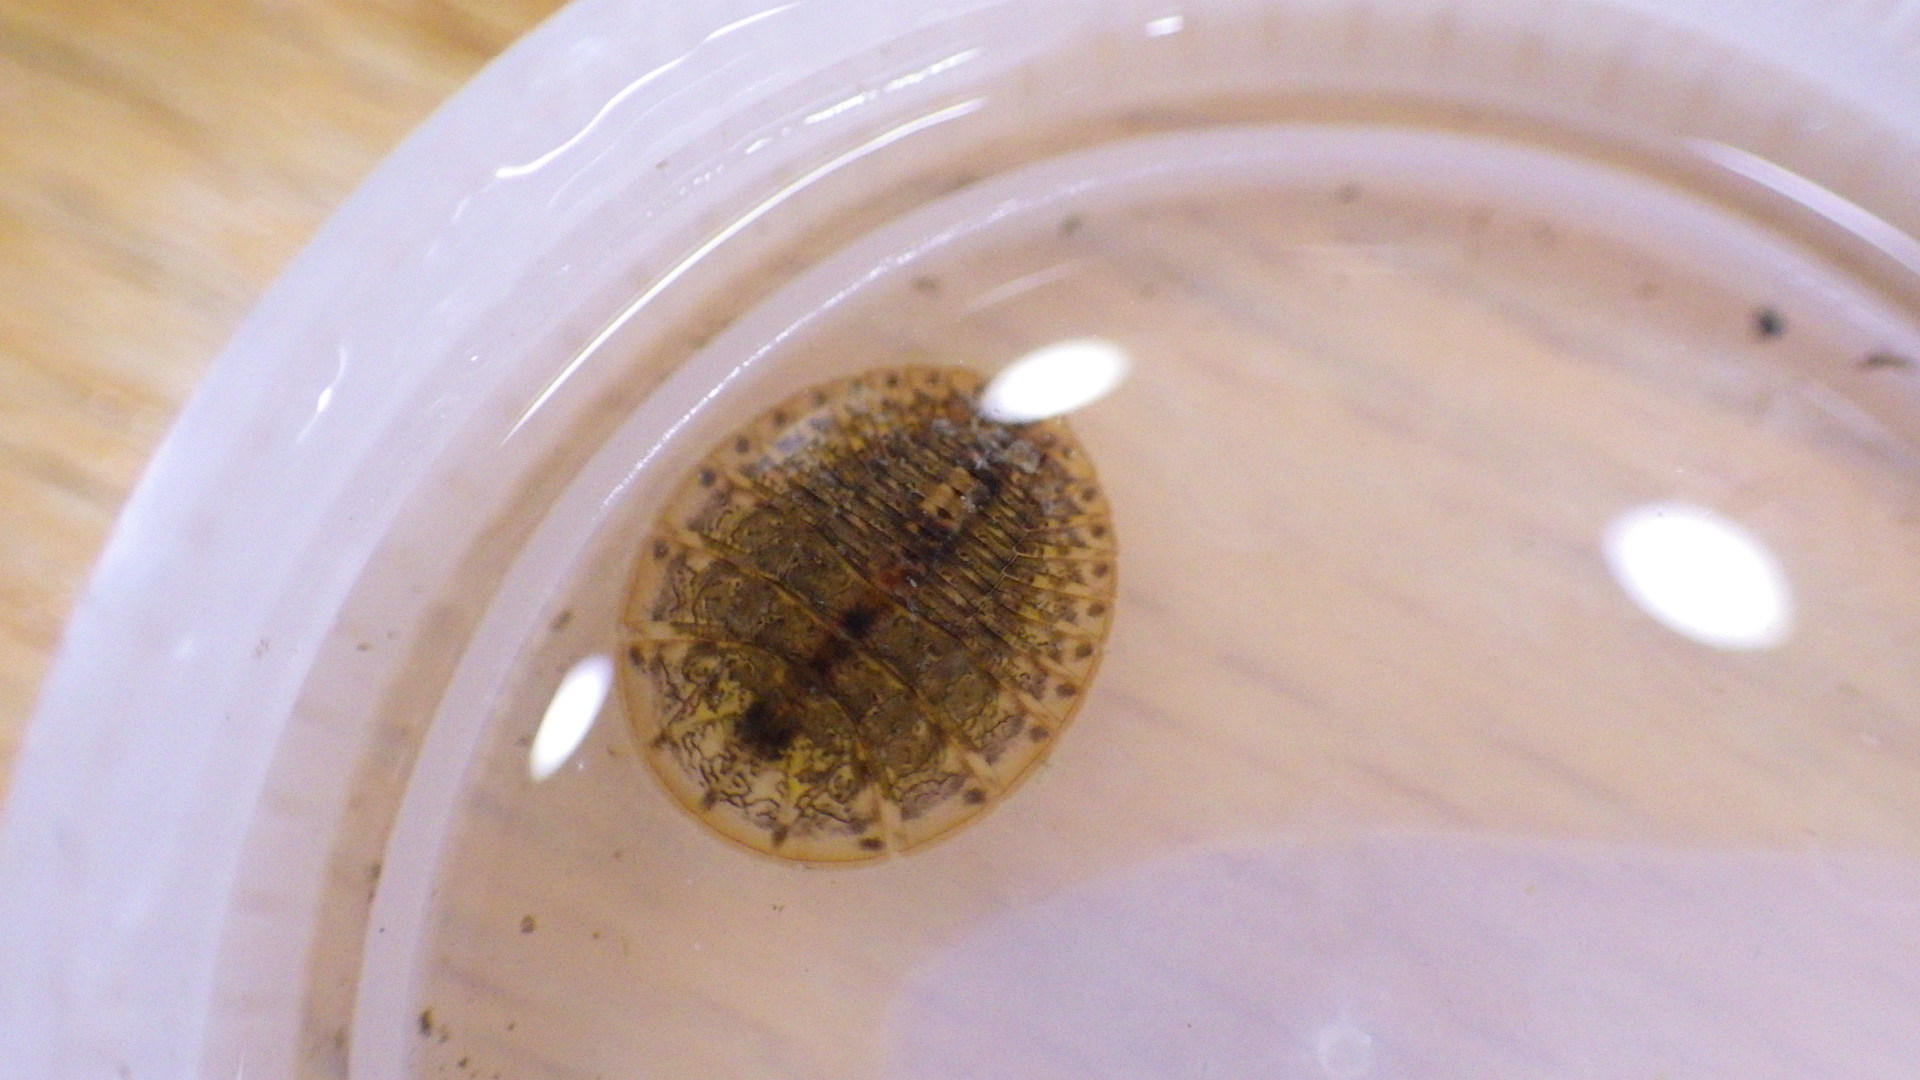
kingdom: Animalia
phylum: Arthropoda
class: Insecta
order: Coleoptera
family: Psephenidae
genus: Psephenus
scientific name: Psephenus herricki
